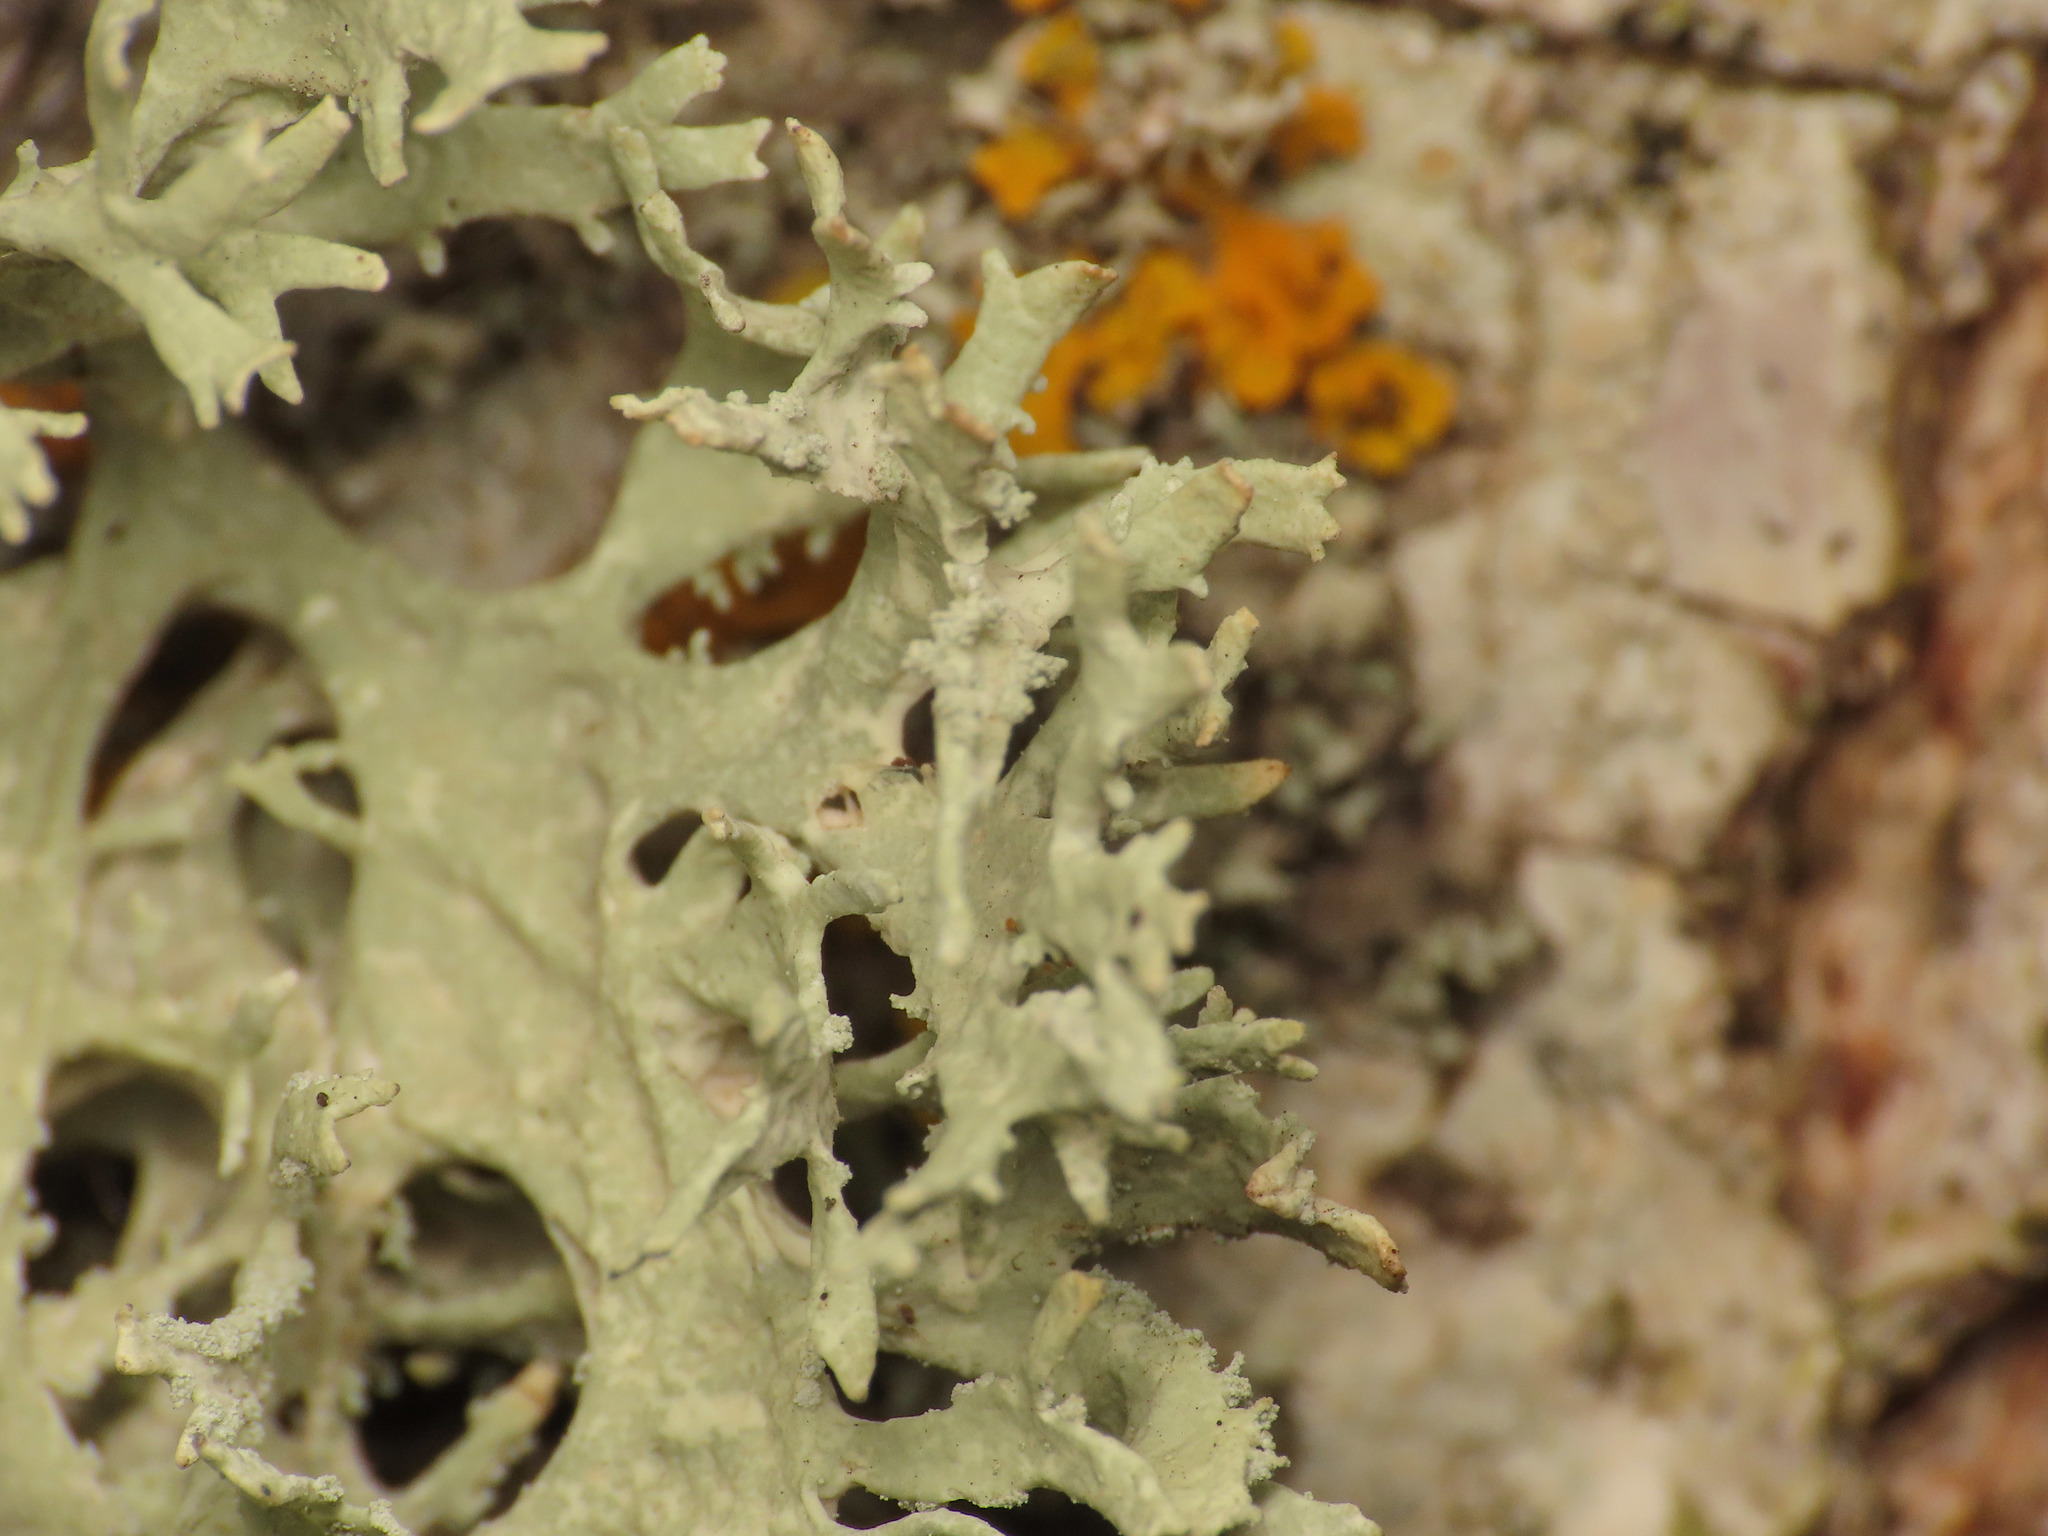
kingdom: Fungi
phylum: Ascomycota
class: Lecanoromycetes
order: Lecanorales
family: Parmeliaceae
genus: Evernia
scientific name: Evernia prunastri
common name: Oak moss
